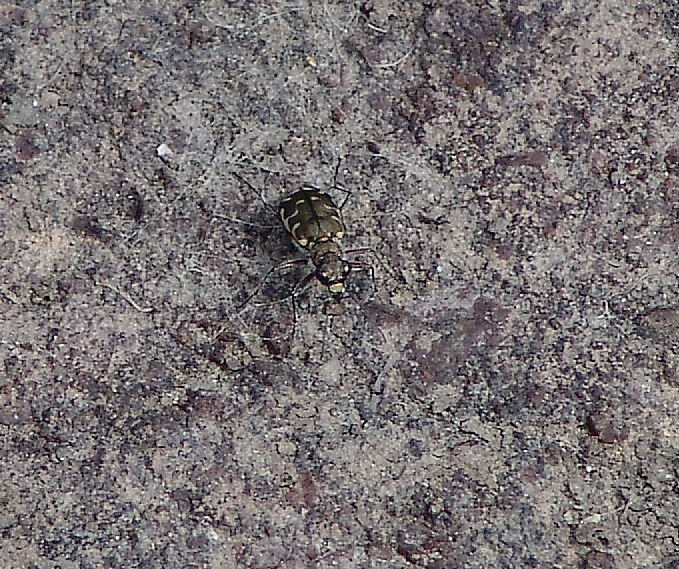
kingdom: Animalia
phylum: Arthropoda
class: Insecta
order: Coleoptera
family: Carabidae
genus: Cicindela
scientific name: Cicindela repanda
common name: Bronzed tiger beetle
